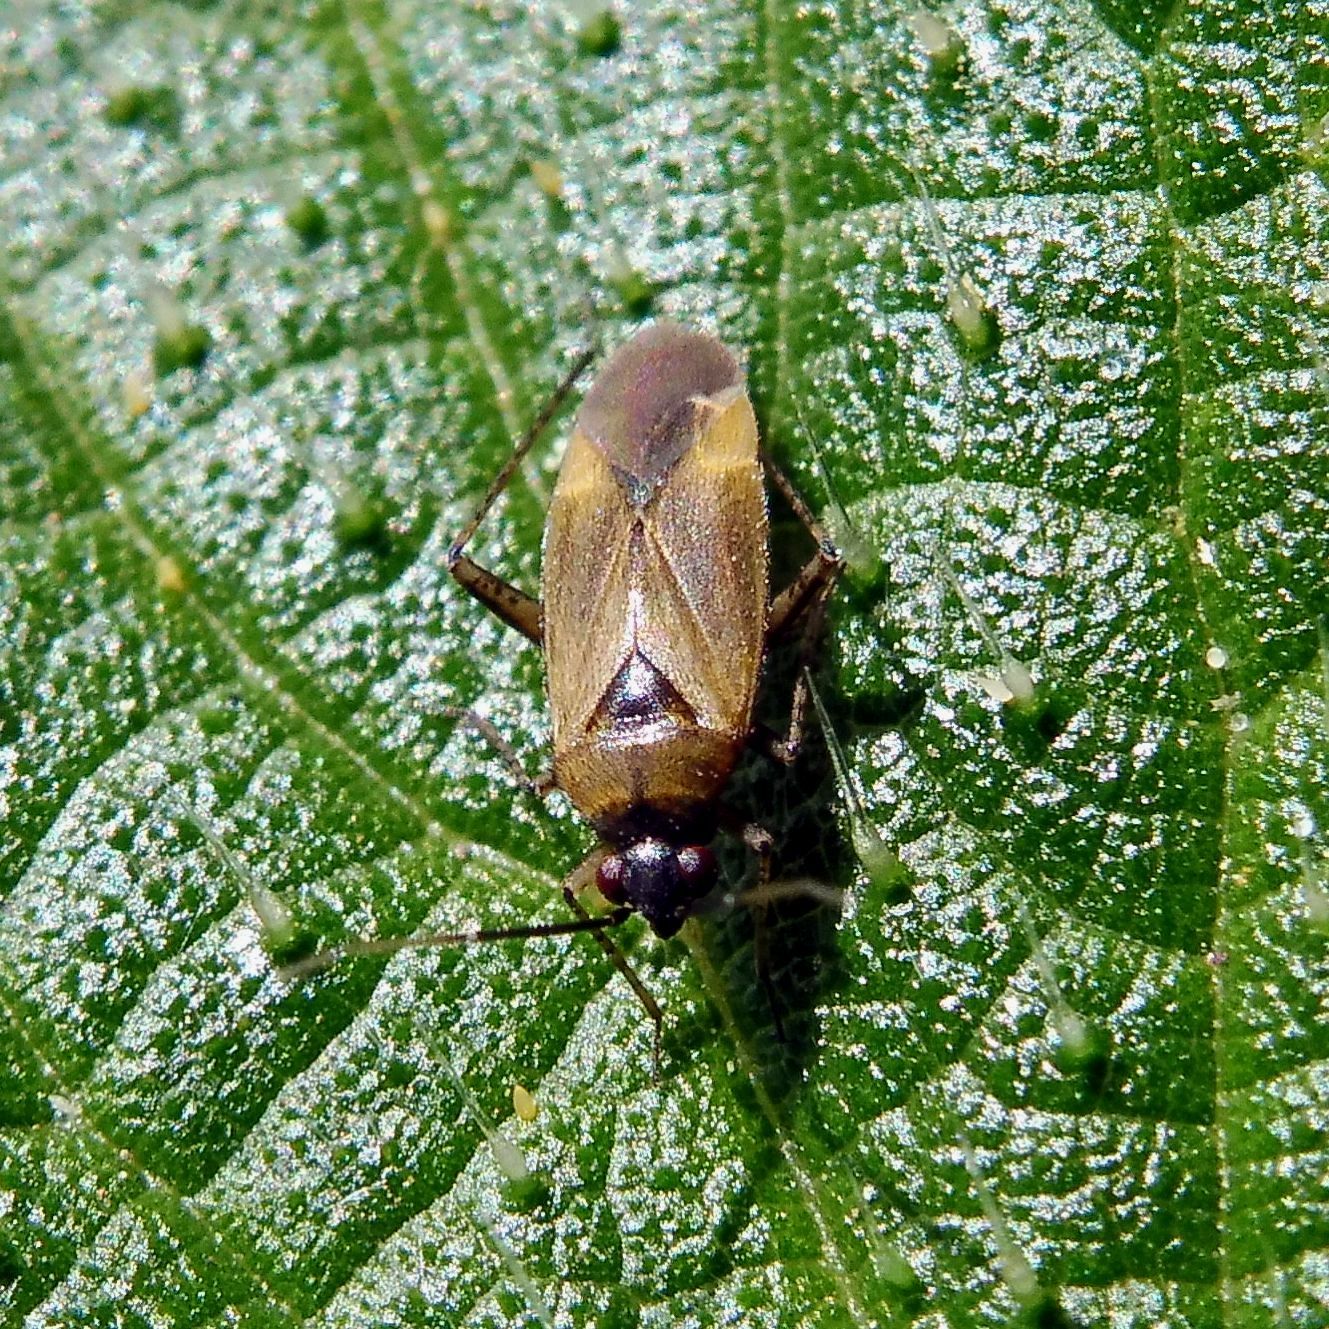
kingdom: Animalia
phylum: Arthropoda
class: Insecta
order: Hemiptera
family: Miridae
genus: Plagiognathus
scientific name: Plagiognathus arbustorum
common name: Plant bug
